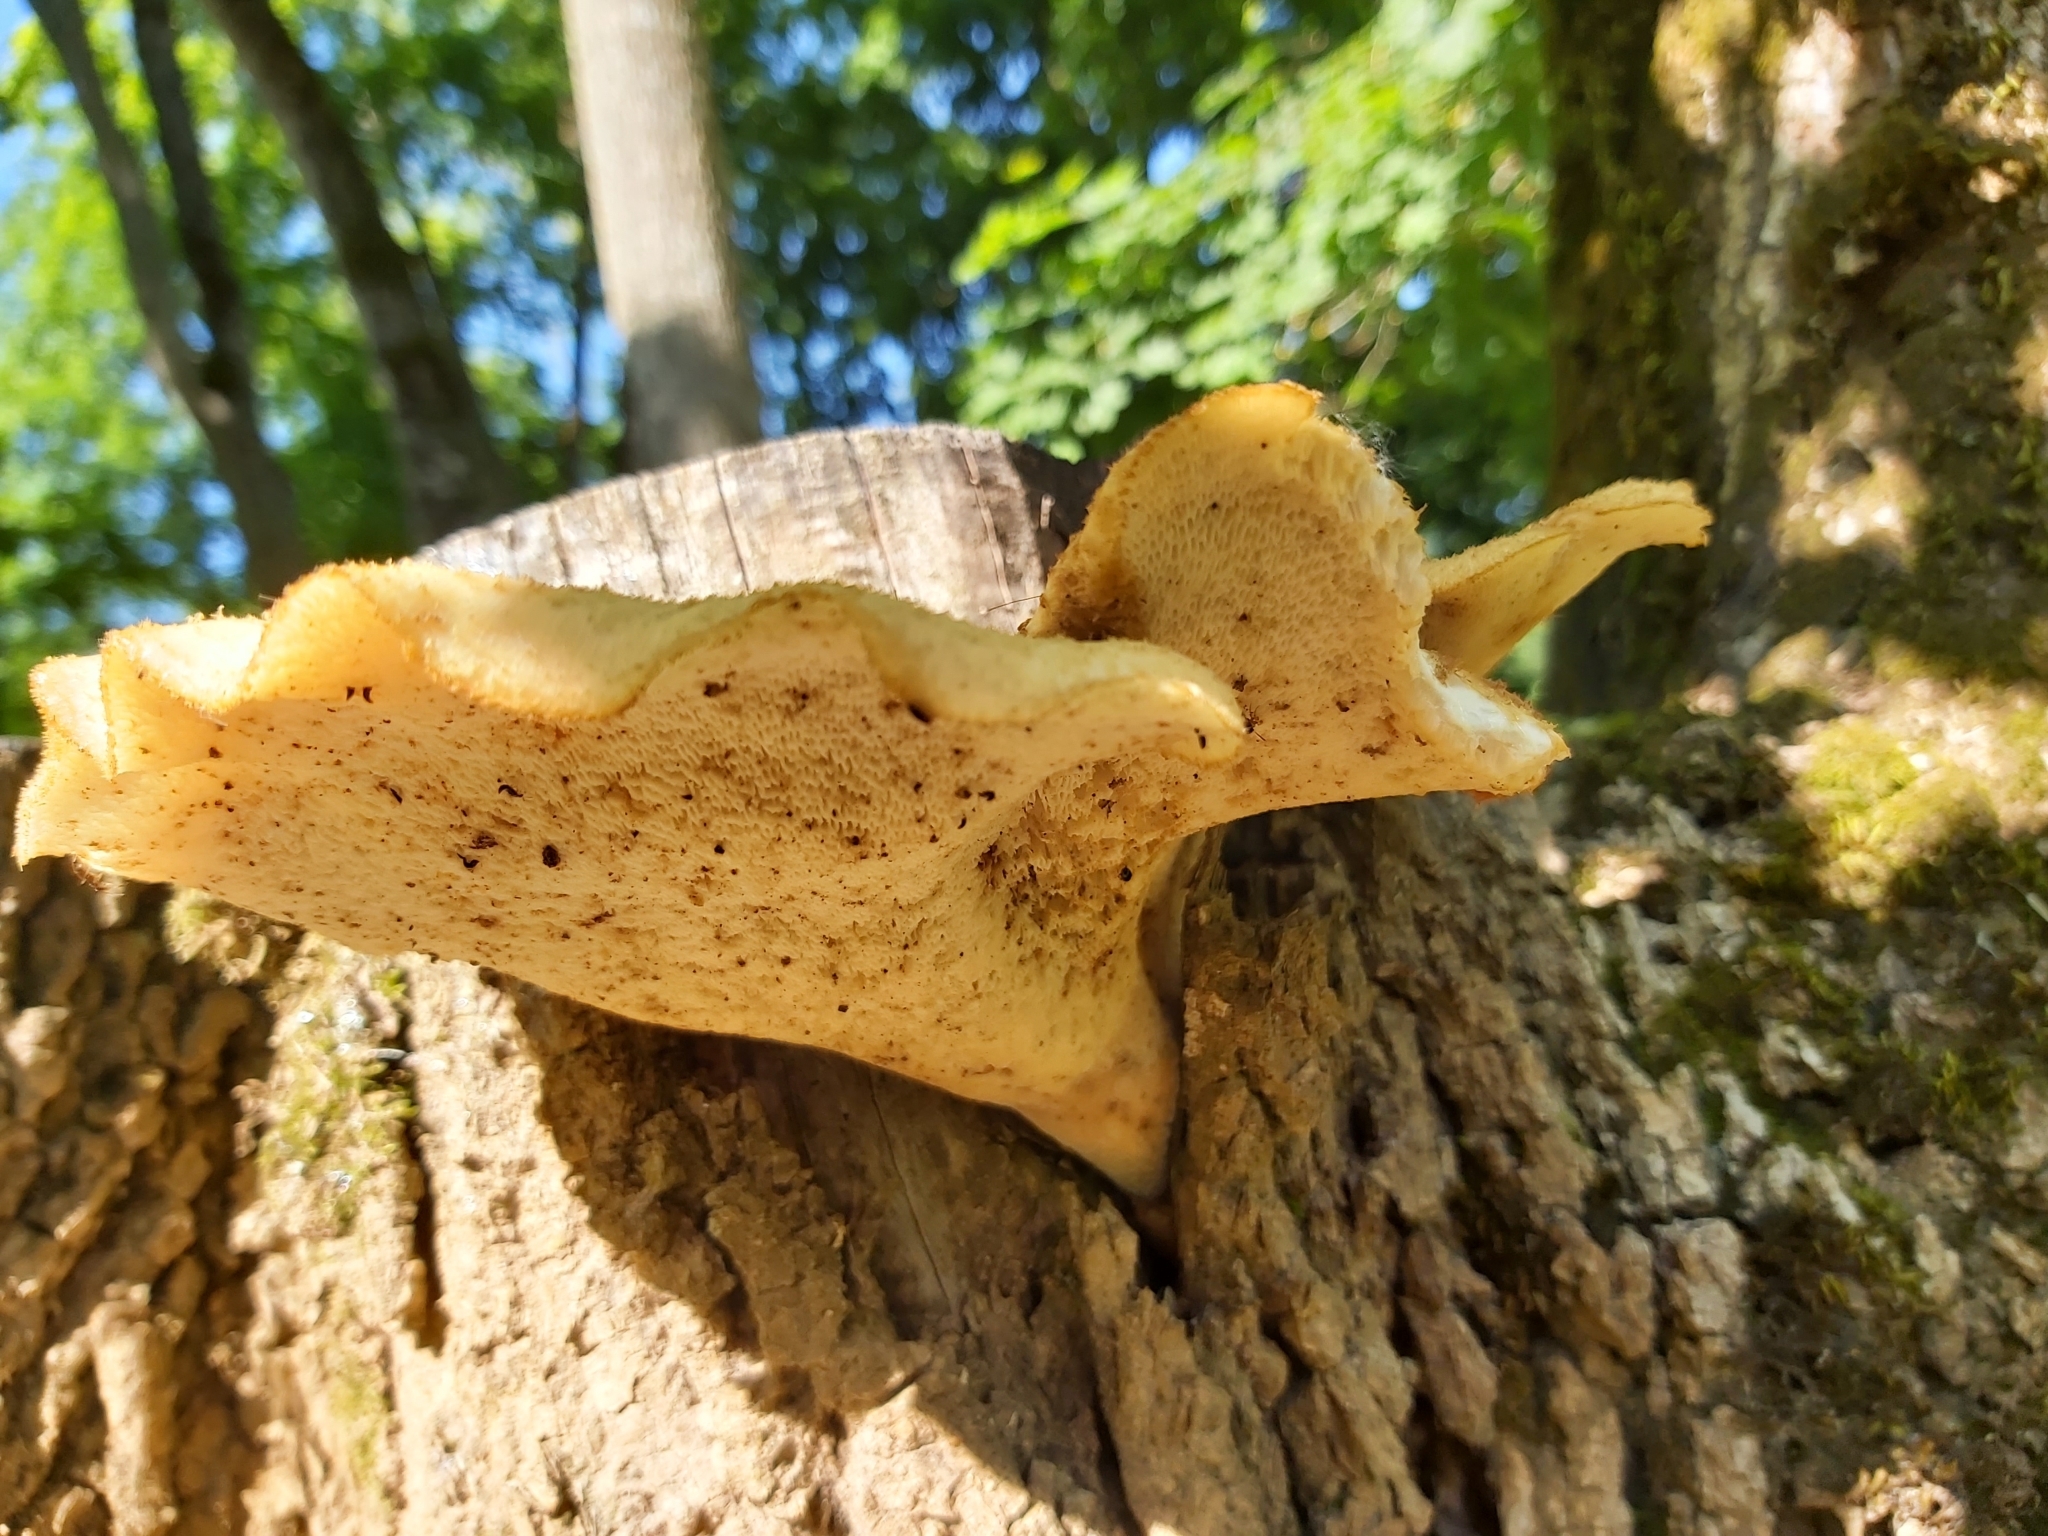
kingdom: Fungi
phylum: Basidiomycota
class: Agaricomycetes
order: Polyporales
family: Polyporaceae
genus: Cerioporus
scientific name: Cerioporus squamosus
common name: Dryad's saddle
